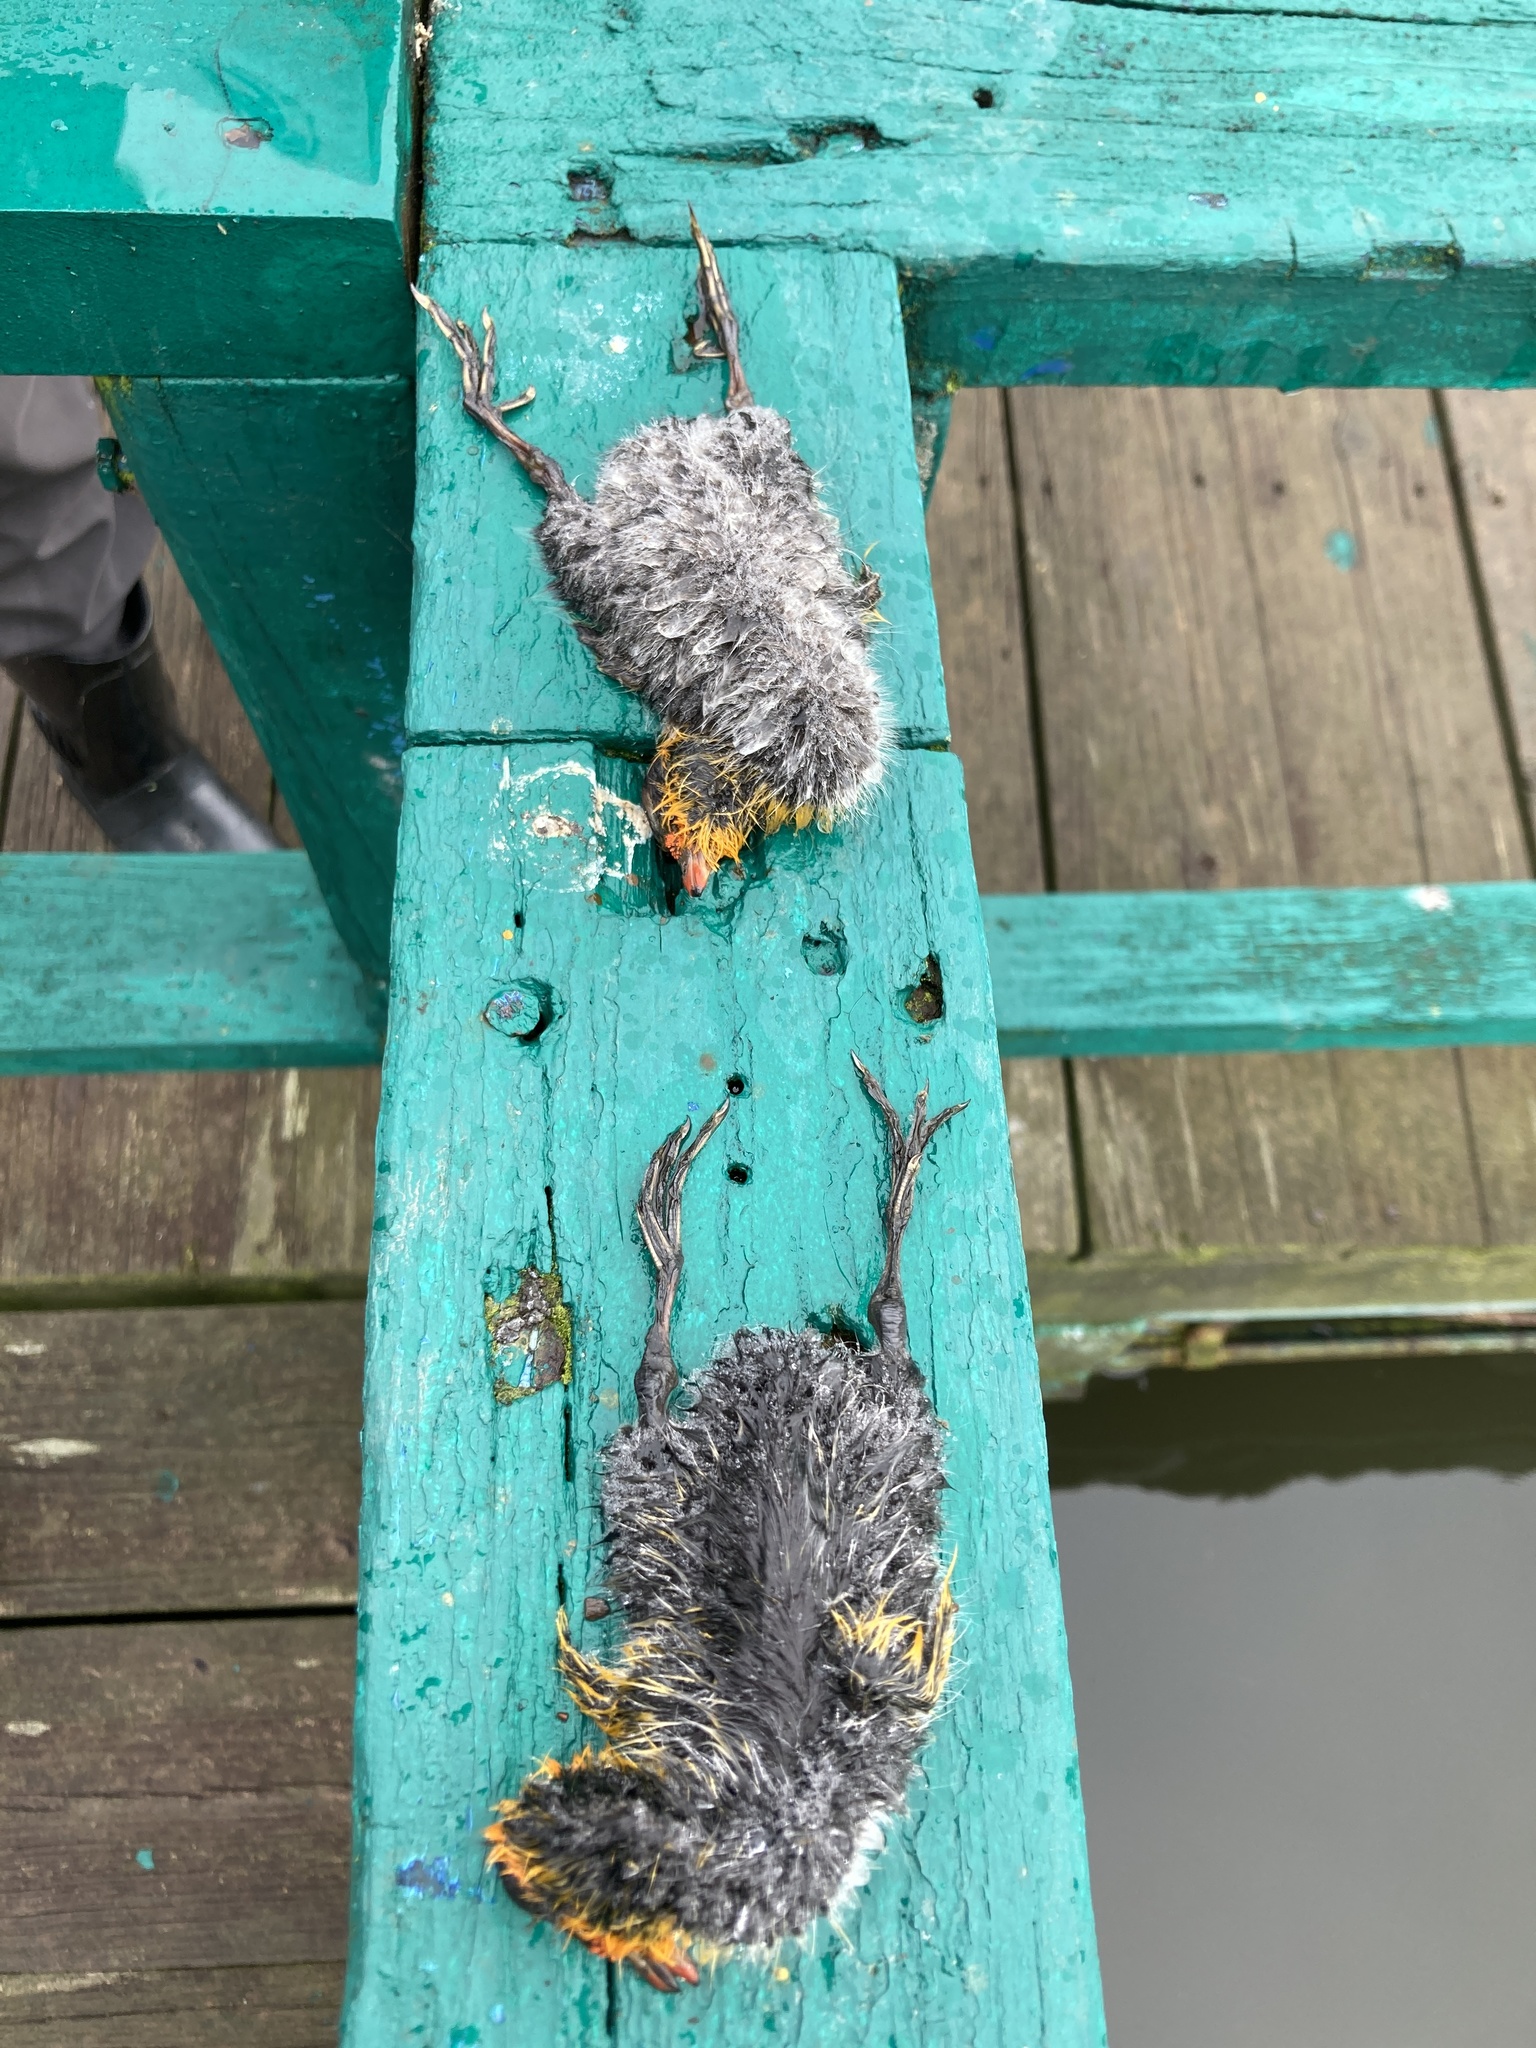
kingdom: Animalia
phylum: Chordata
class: Aves
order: Gruiformes
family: Rallidae
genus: Fulica
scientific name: Fulica americana
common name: American coot
